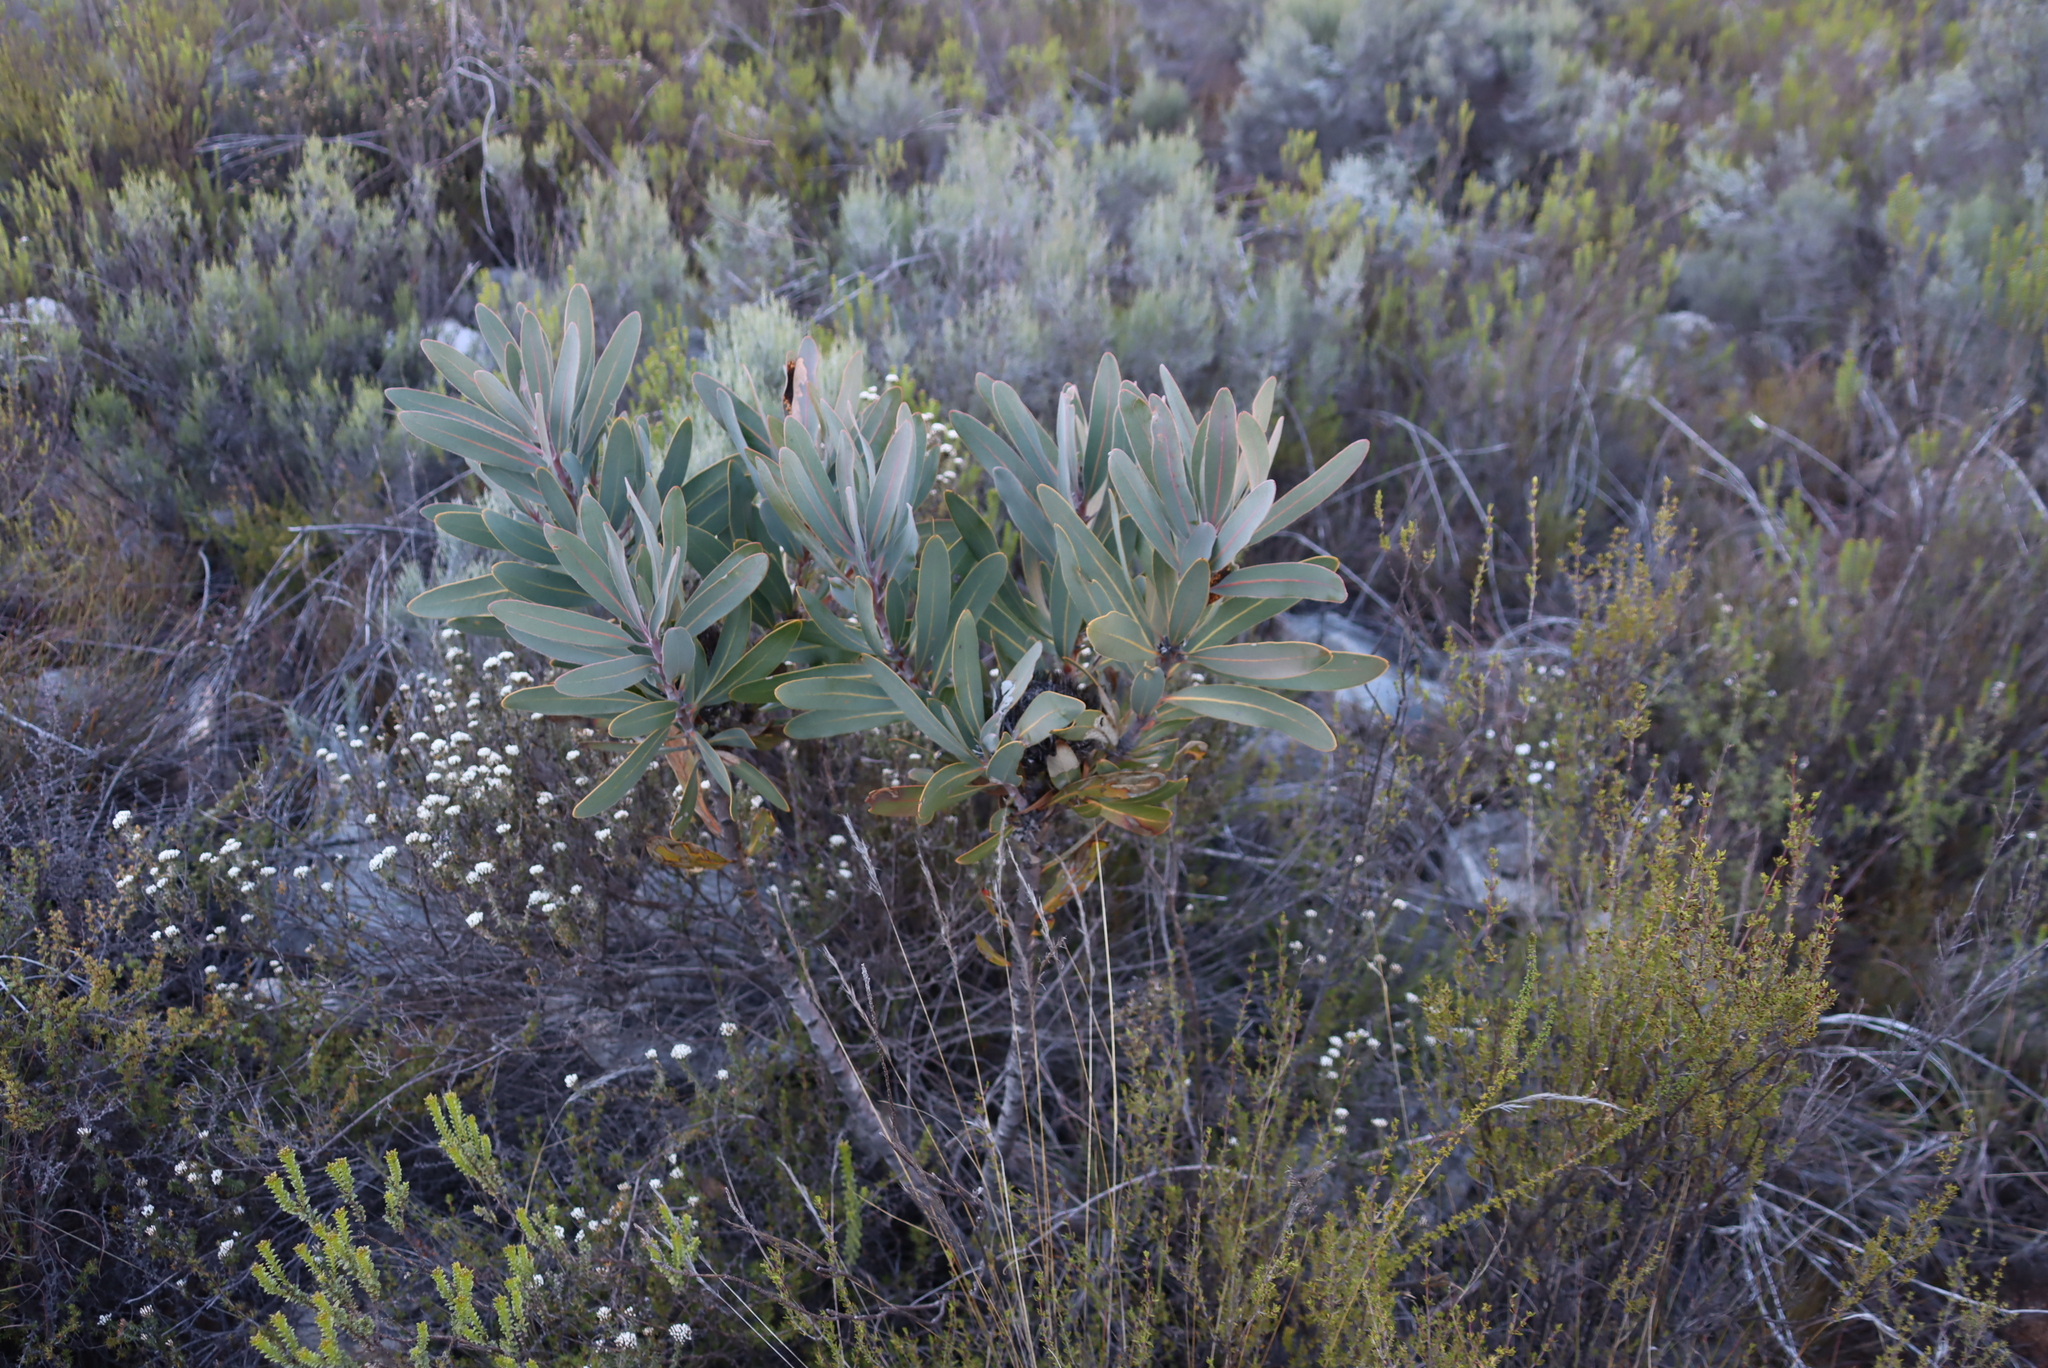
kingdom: Plantae
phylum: Tracheophyta
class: Magnoliopsida
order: Proteales
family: Proteaceae
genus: Protea
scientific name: Protea lorifolia
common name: Strap-leaved protea
